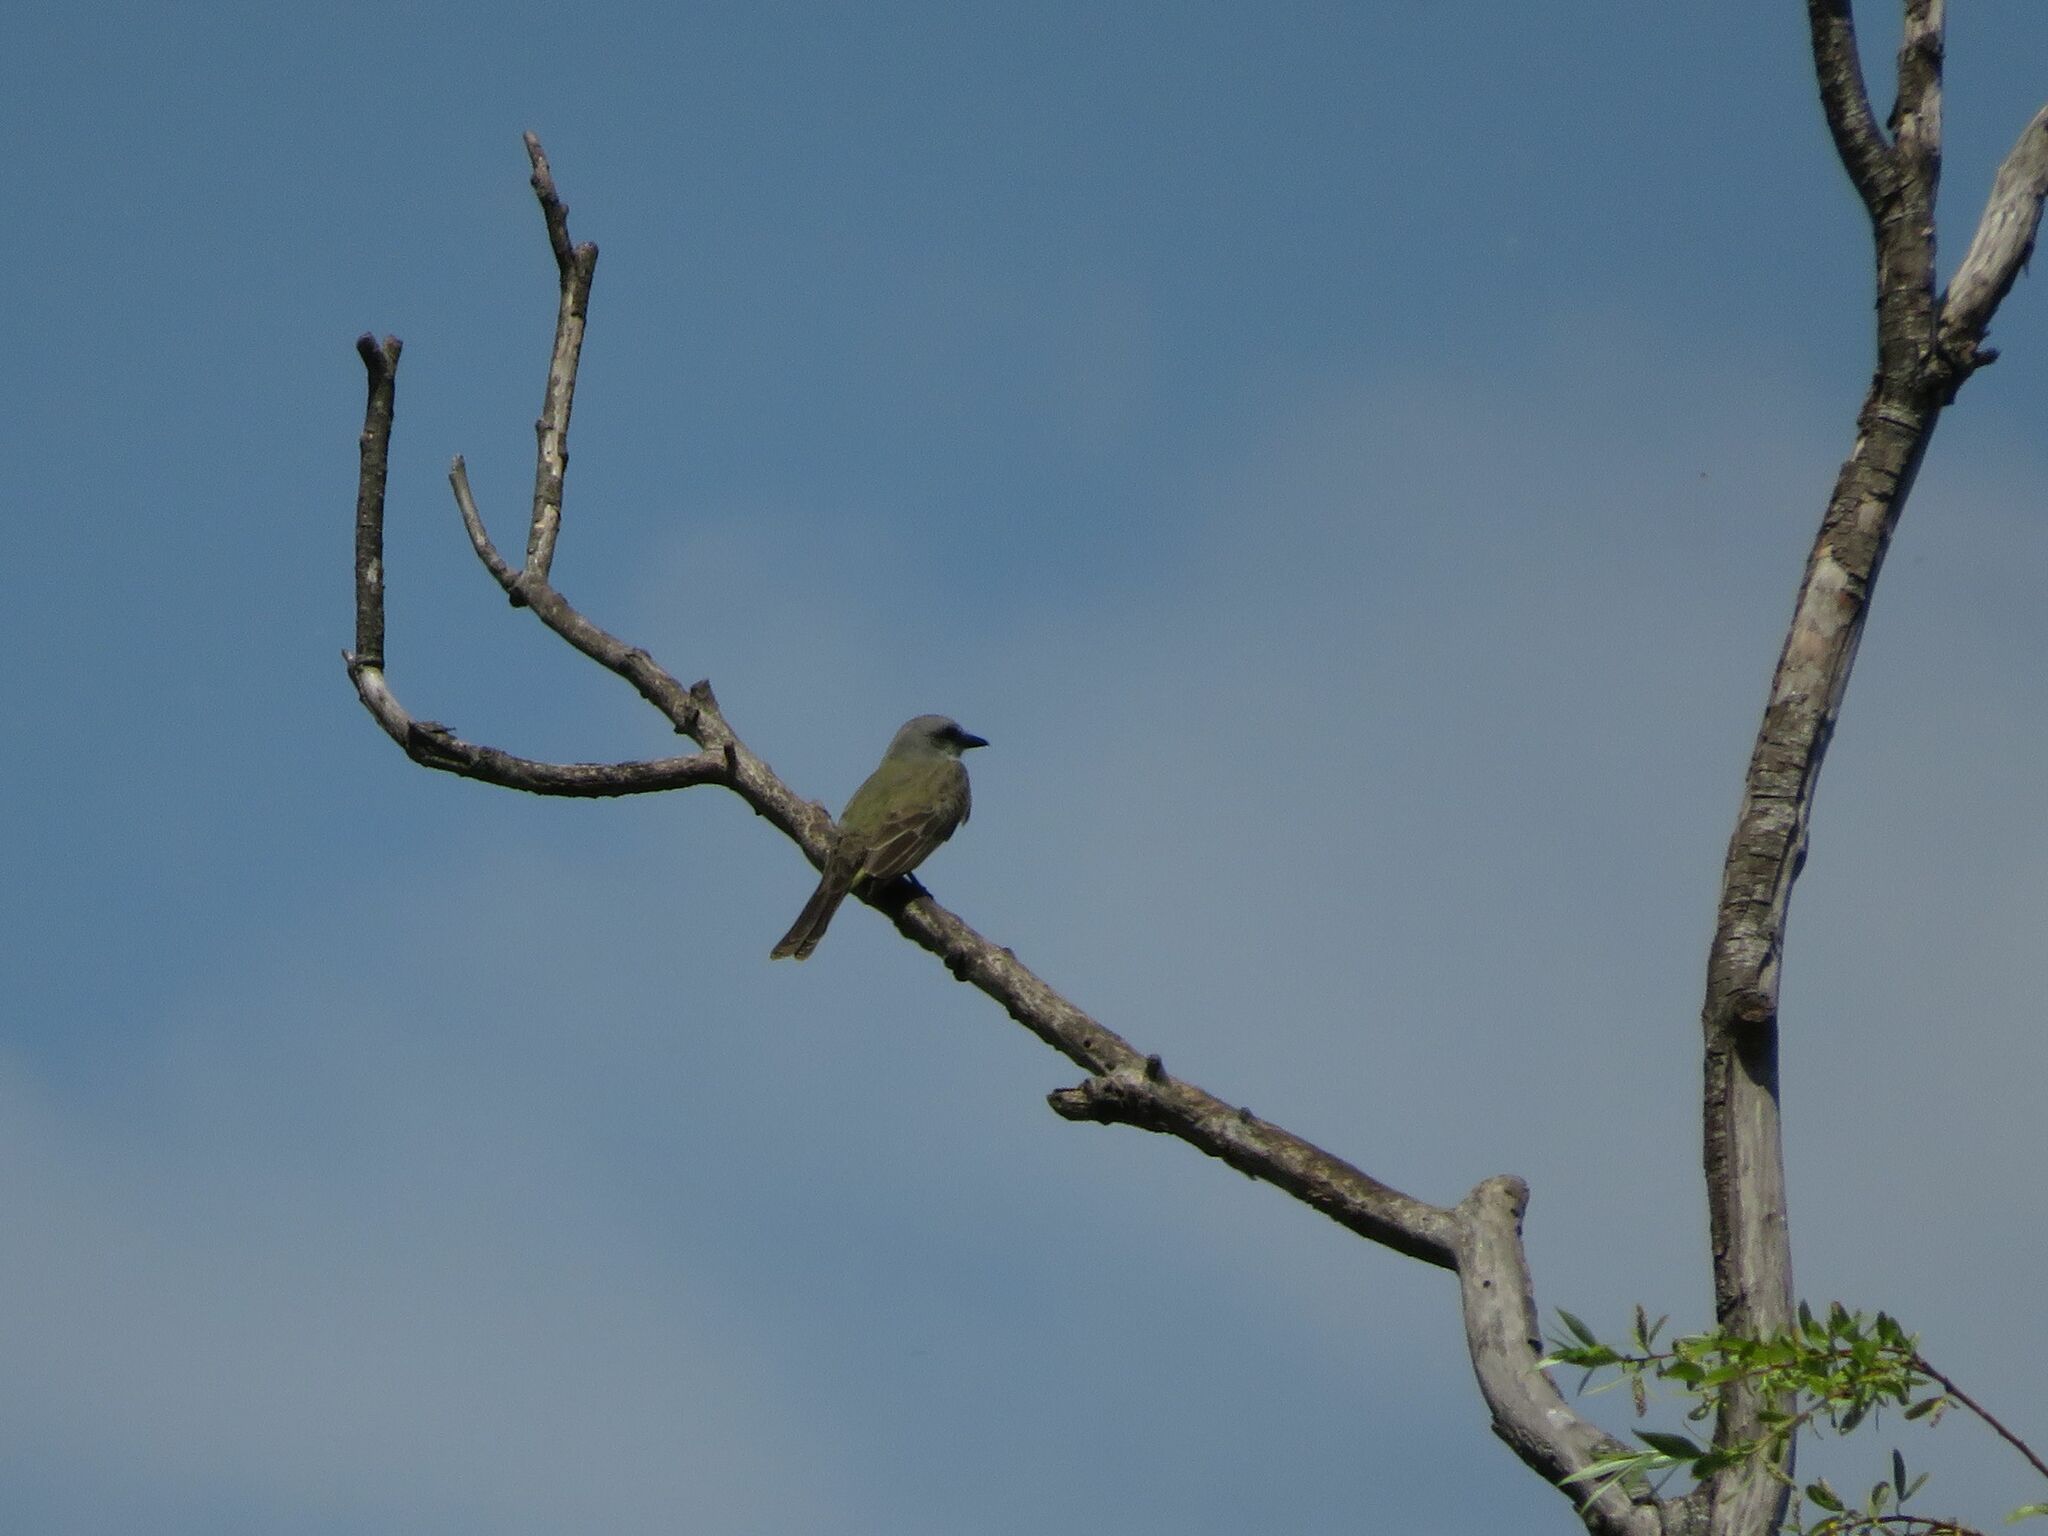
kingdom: Animalia
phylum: Chordata
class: Aves
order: Passeriformes
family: Tyrannidae
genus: Tyrannus
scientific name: Tyrannus melancholicus
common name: Tropical kingbird
